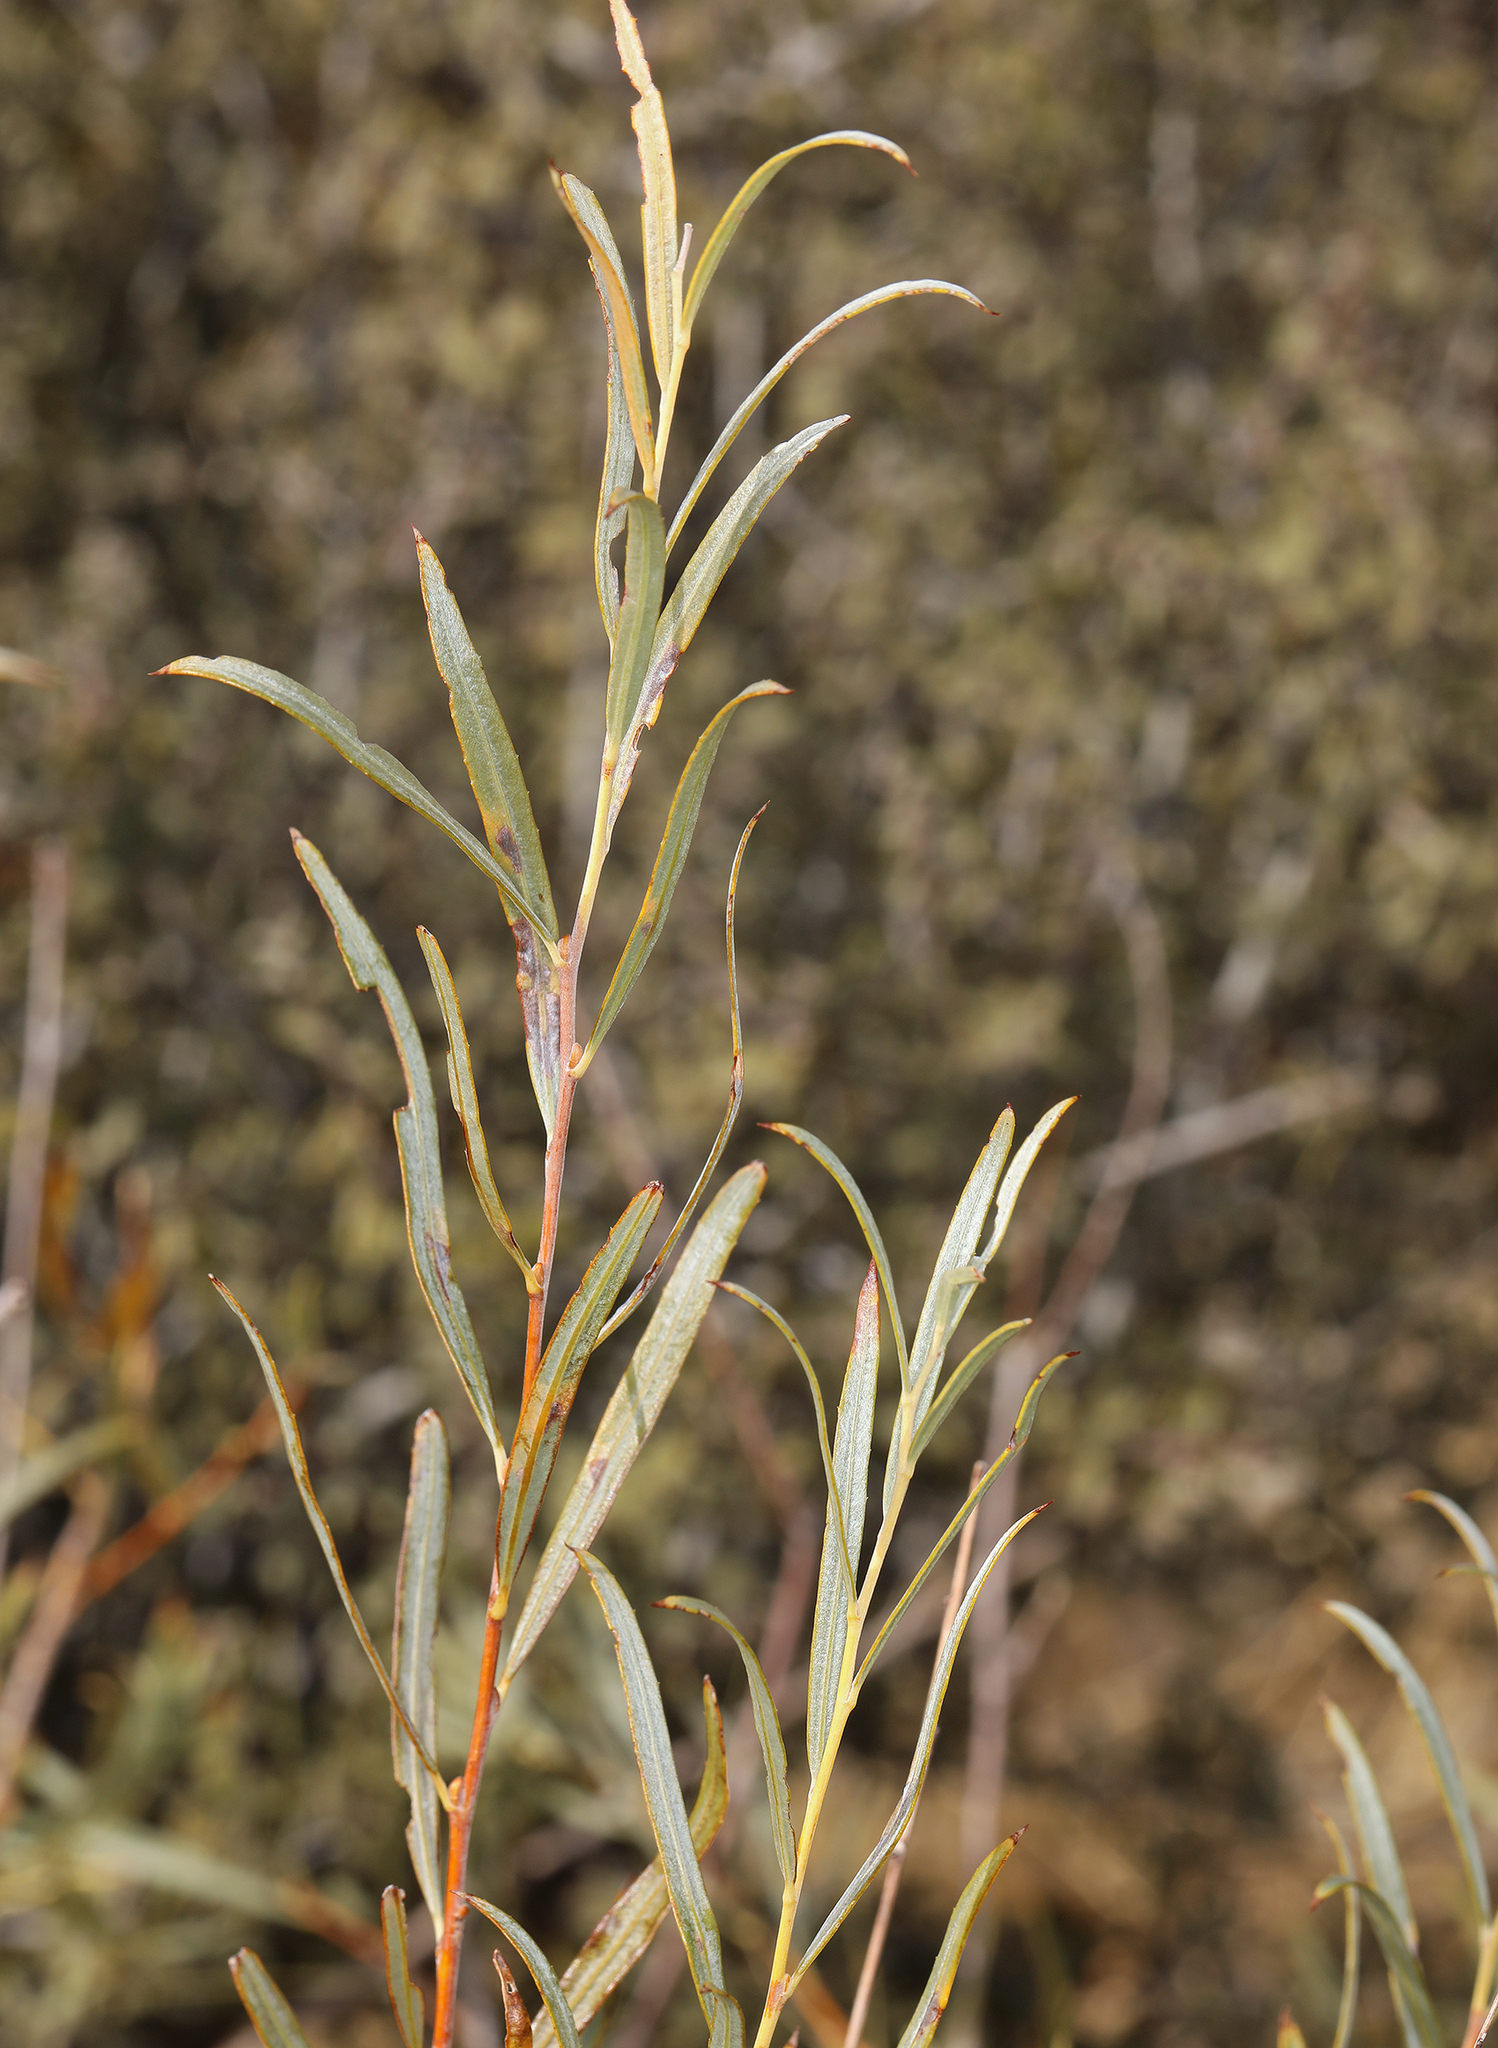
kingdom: Plantae
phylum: Tracheophyta
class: Magnoliopsida
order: Malpighiales
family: Salicaceae
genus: Salix
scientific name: Salix exigua
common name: Coyote willow
